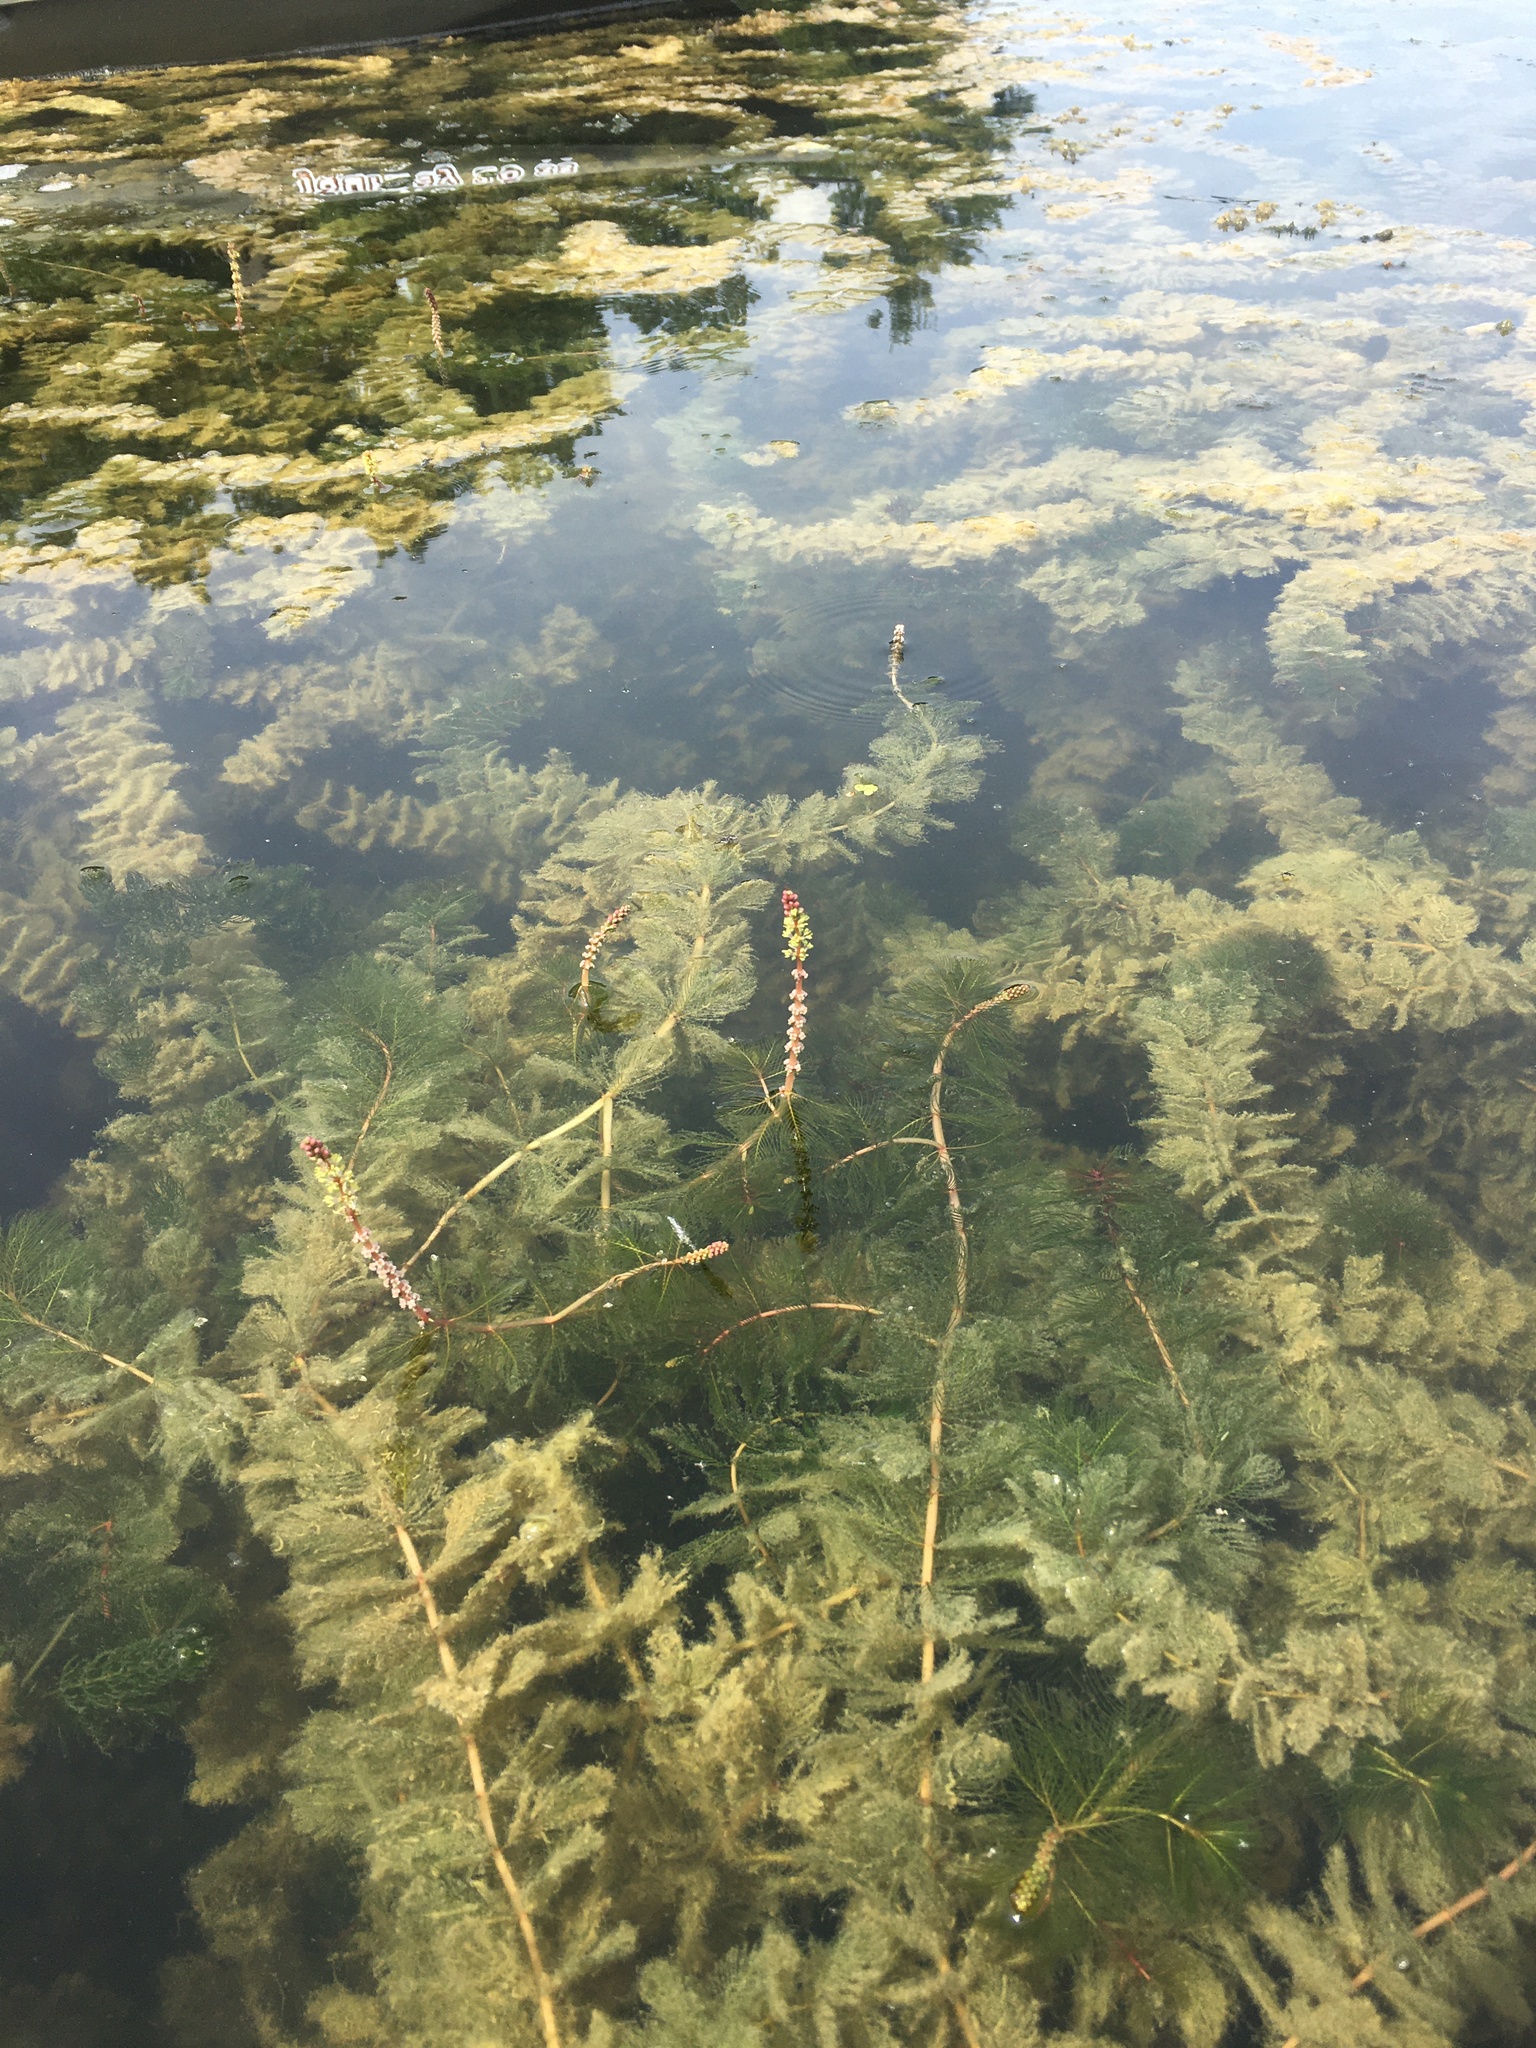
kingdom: Plantae
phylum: Tracheophyta
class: Magnoliopsida
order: Saxifragales
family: Haloragaceae
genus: Myriophyllum
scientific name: Myriophyllum spicatum
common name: Spiked water-milfoil
